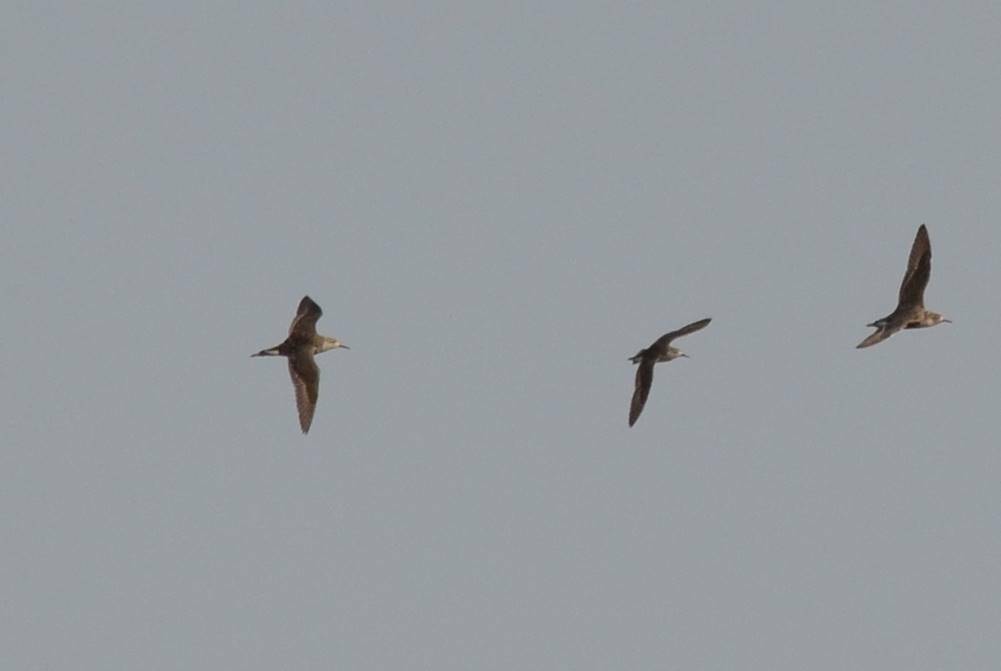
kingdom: Animalia
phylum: Chordata
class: Aves
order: Charadriiformes
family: Scolopacidae
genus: Calidris
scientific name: Calidris pugnax
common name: Ruff
